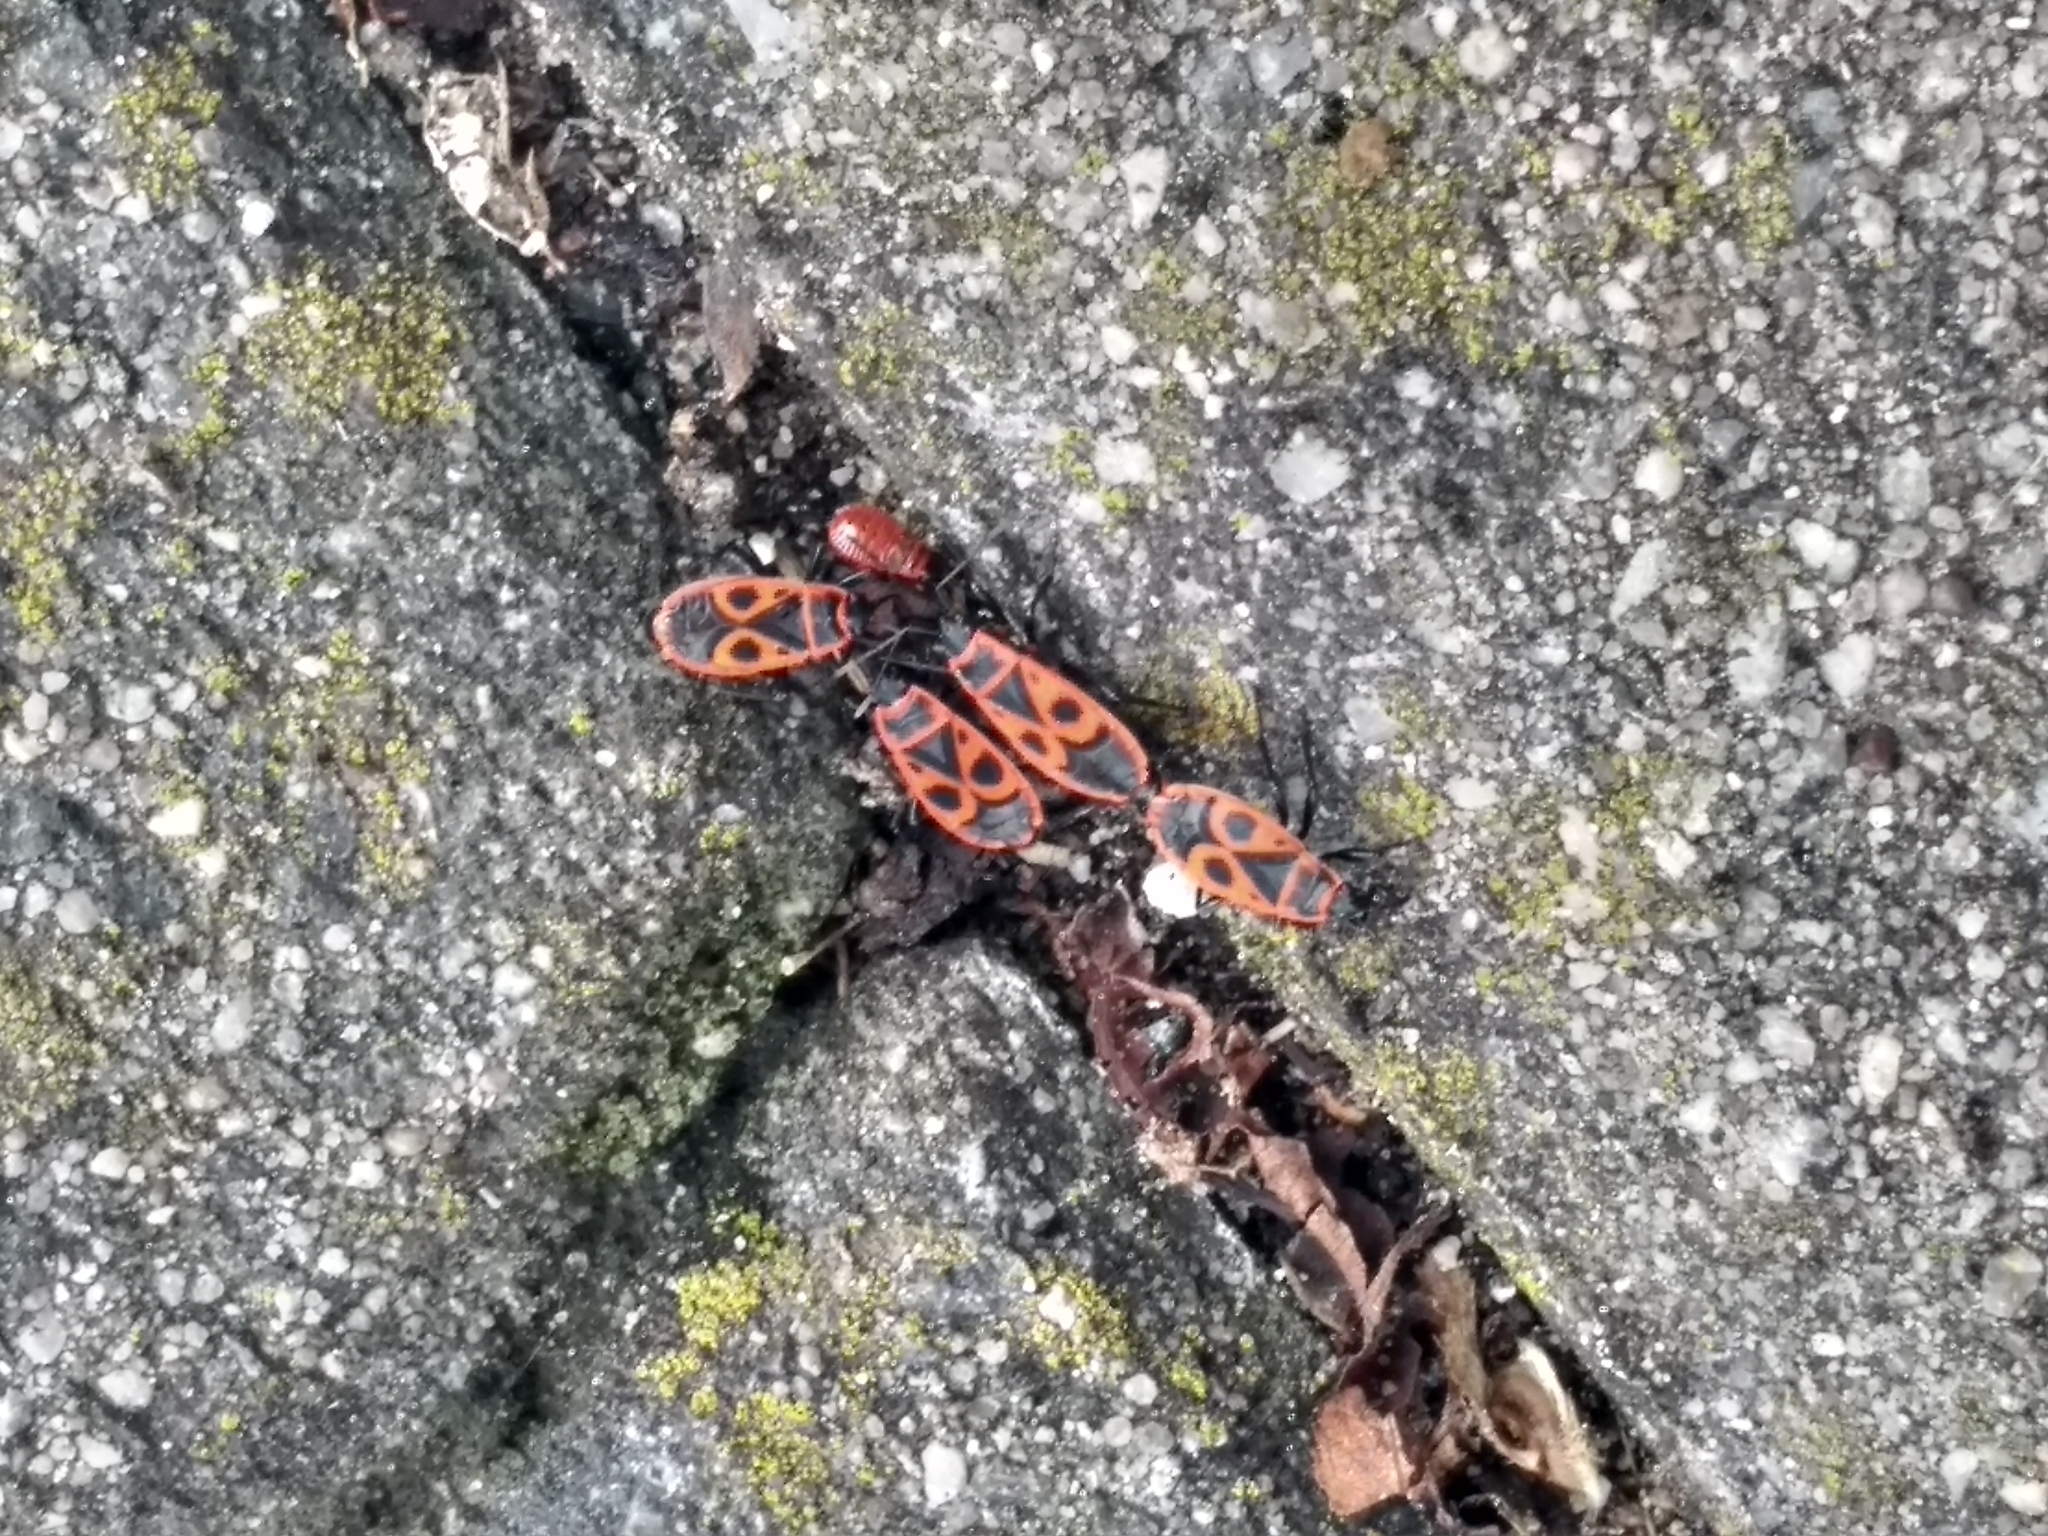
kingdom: Animalia
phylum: Arthropoda
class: Insecta
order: Hemiptera
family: Pyrrhocoridae
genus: Pyrrhocoris
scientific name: Pyrrhocoris apterus
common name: Firebug
